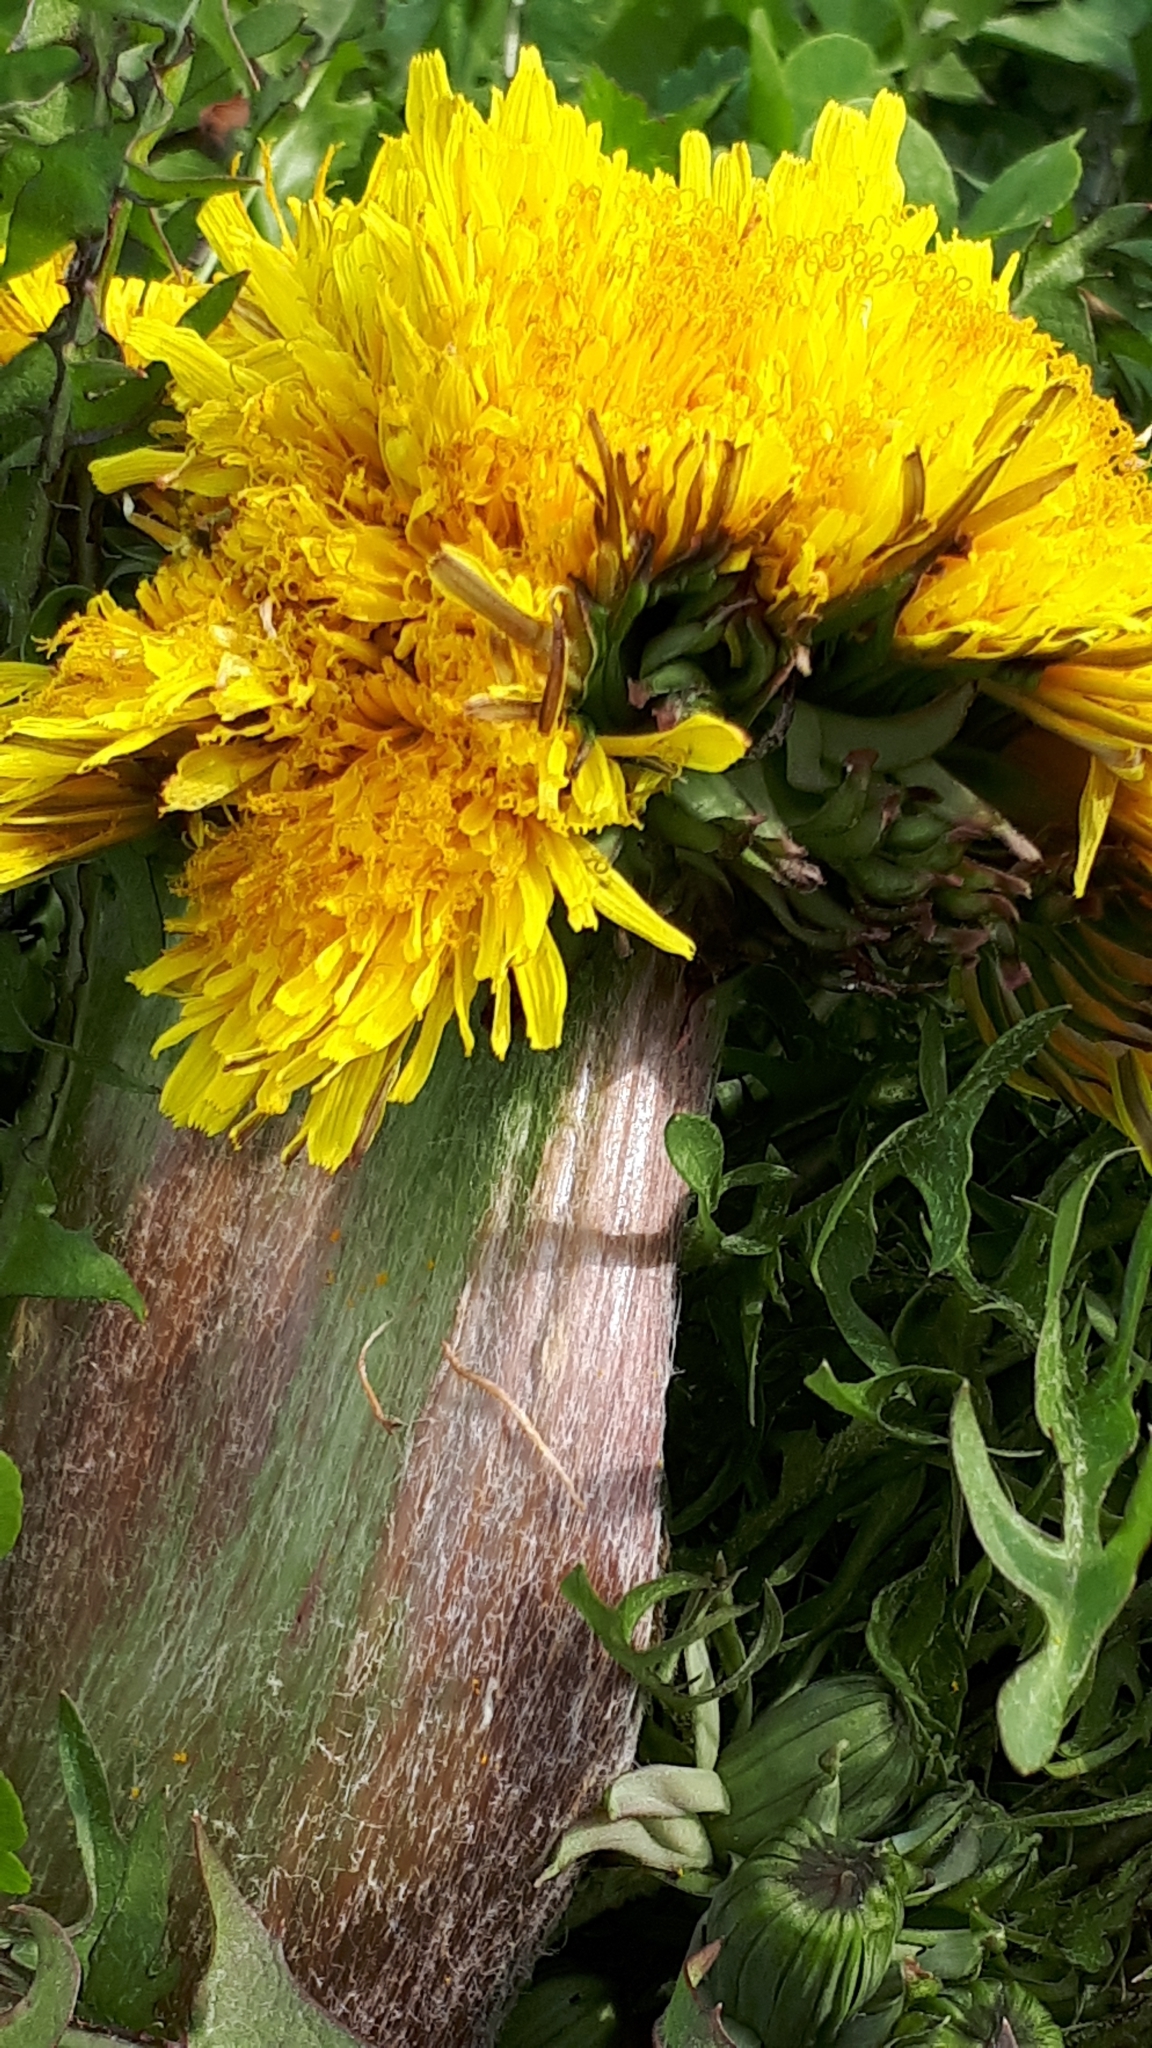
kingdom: Plantae
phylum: Tracheophyta
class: Magnoliopsida
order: Asterales
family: Asteraceae
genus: Taraxacum
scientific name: Taraxacum
